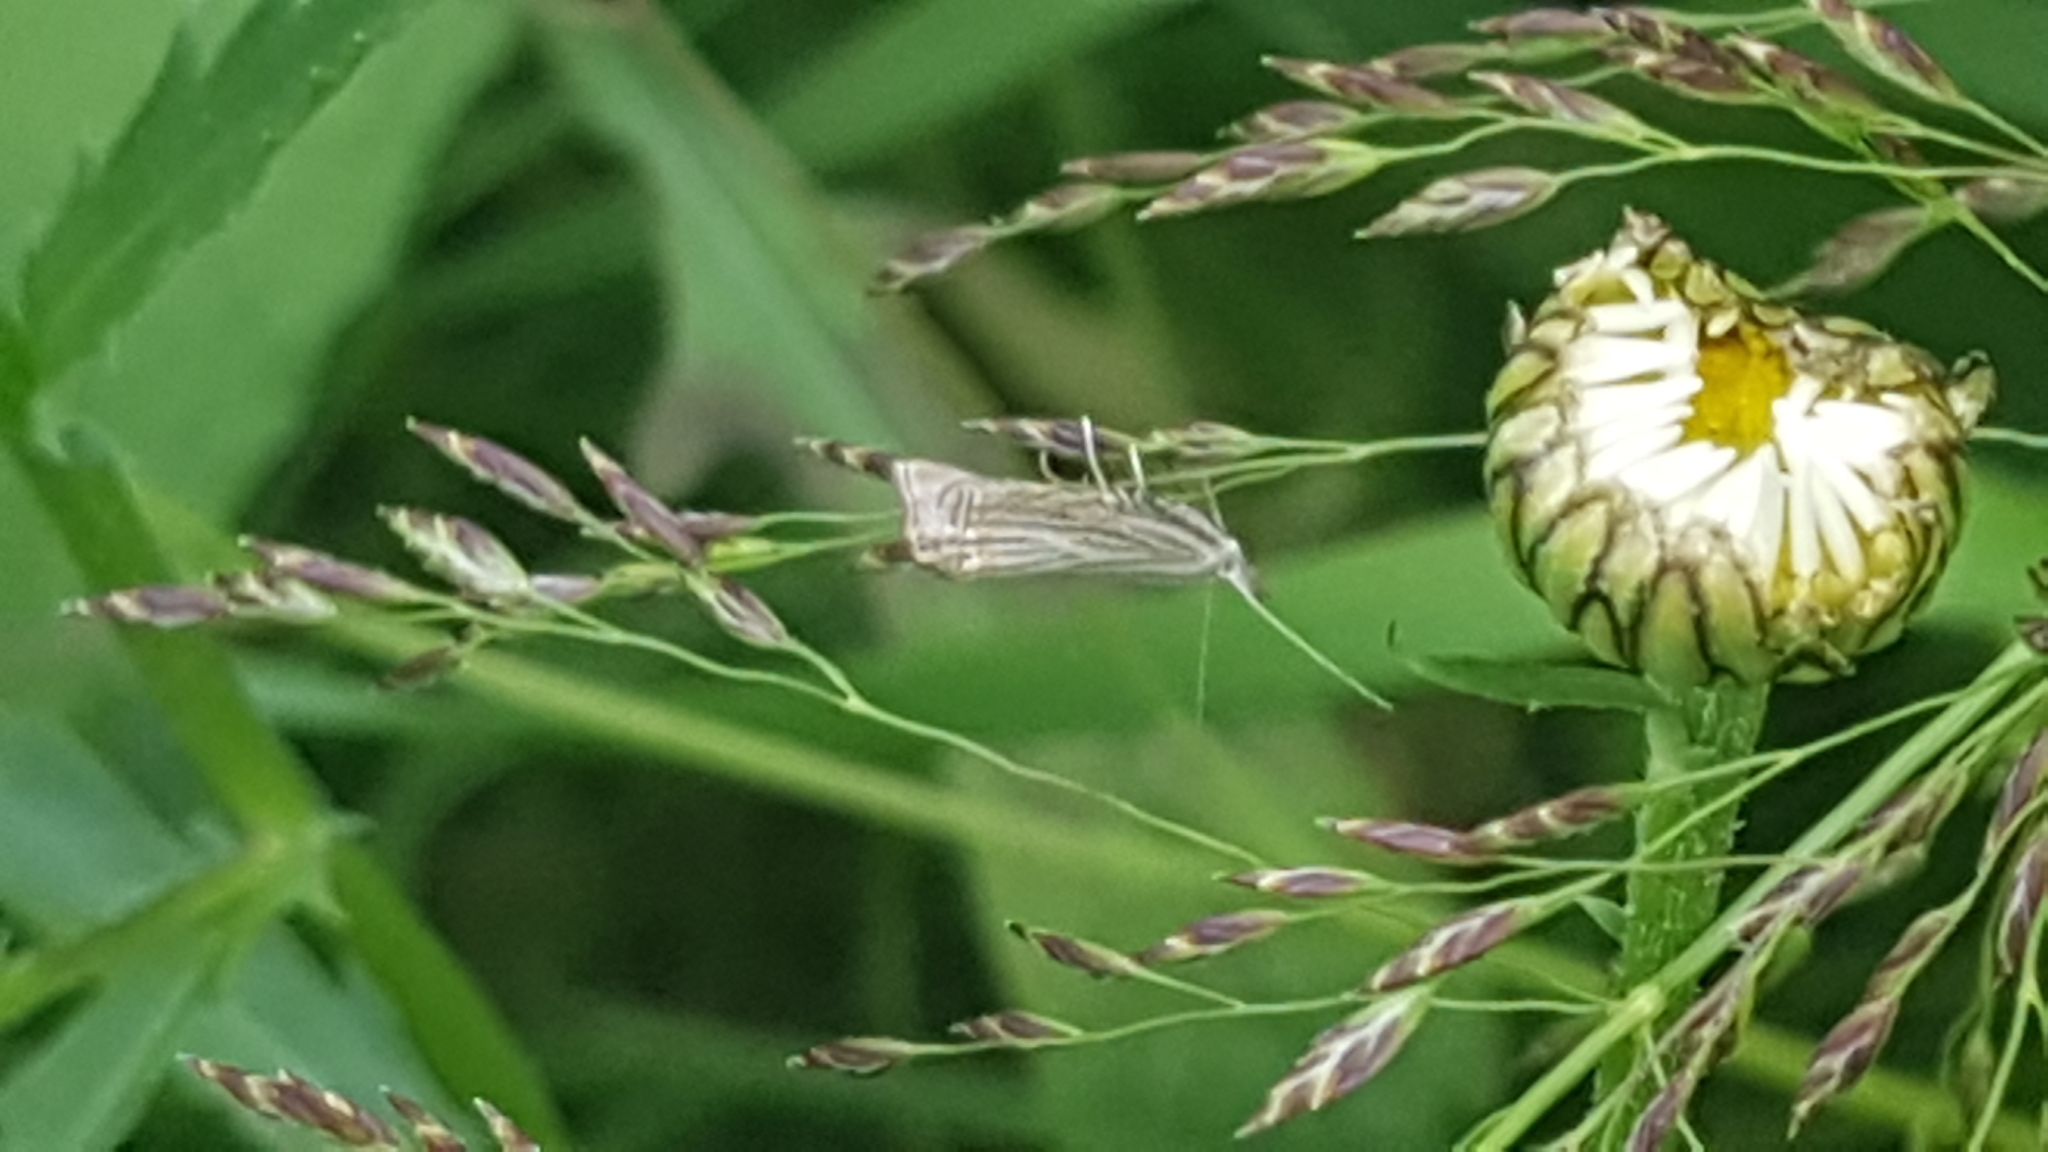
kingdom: Animalia
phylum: Arthropoda
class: Insecta
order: Lepidoptera
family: Crambidae
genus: Chrysoteuchia
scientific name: Chrysoteuchia culmella
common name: Garden grass-veneer
